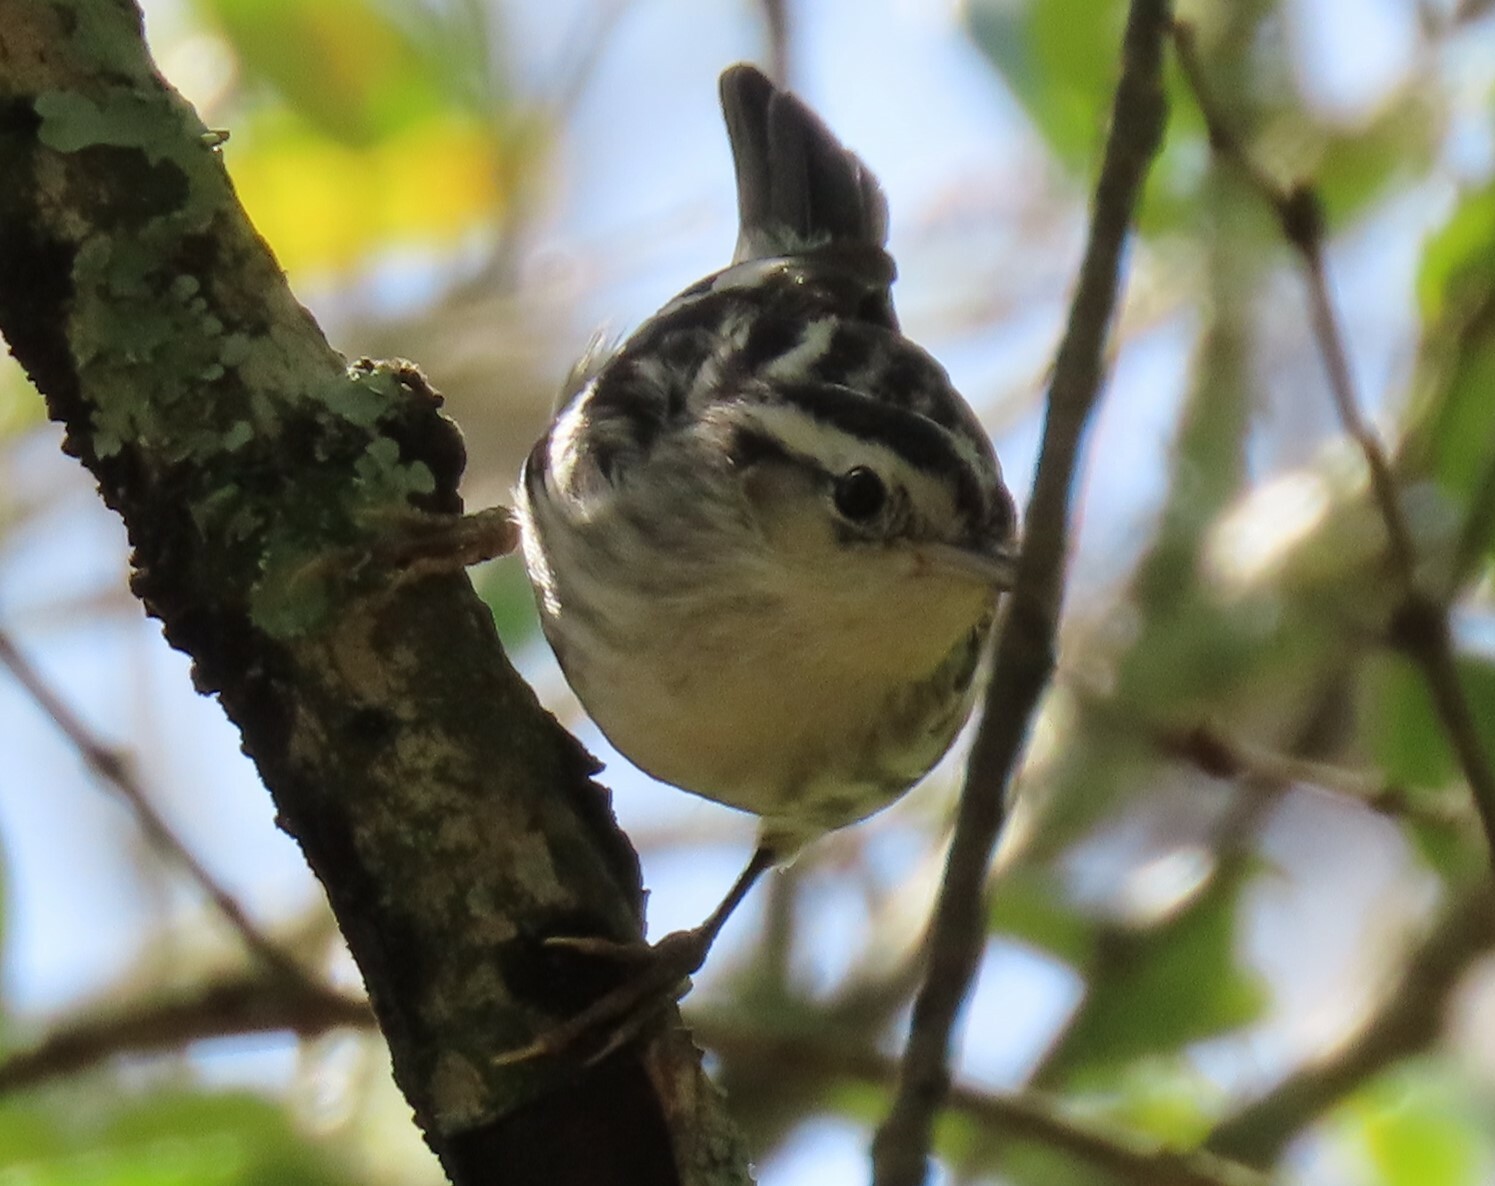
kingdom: Animalia
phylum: Chordata
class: Aves
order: Passeriformes
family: Parulidae
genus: Mniotilta
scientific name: Mniotilta varia
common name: Black-and-white warbler
